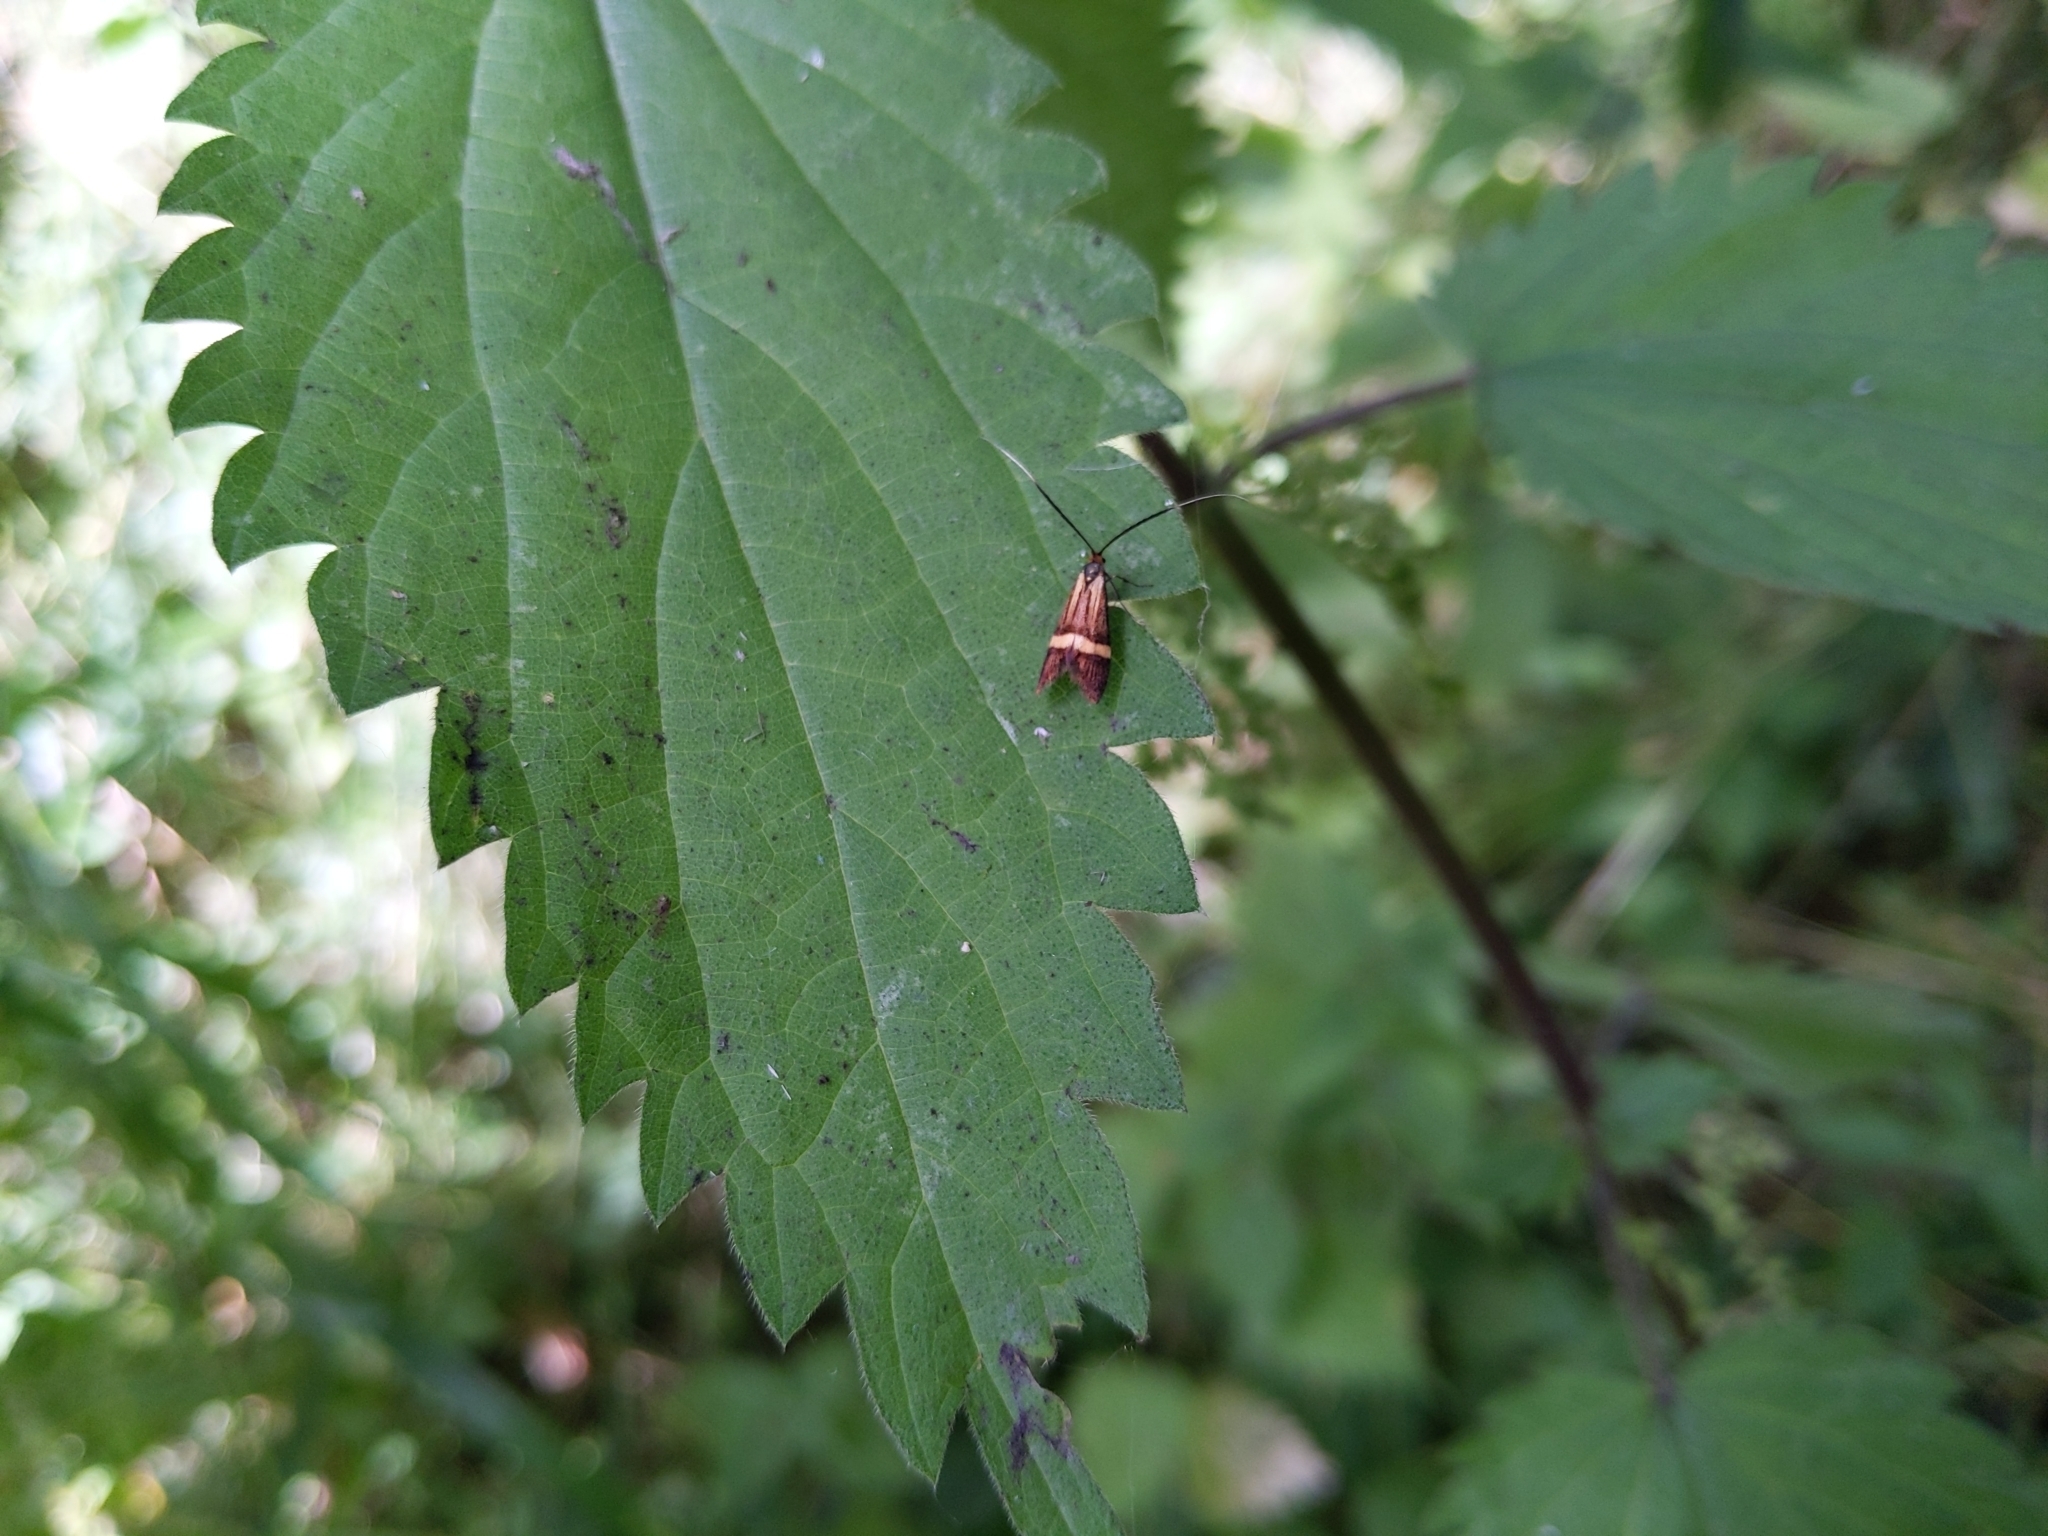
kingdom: Animalia
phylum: Arthropoda
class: Insecta
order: Lepidoptera
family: Adelidae
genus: Nemophora
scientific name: Nemophora degeerella
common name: Yellow-barred long-horn
